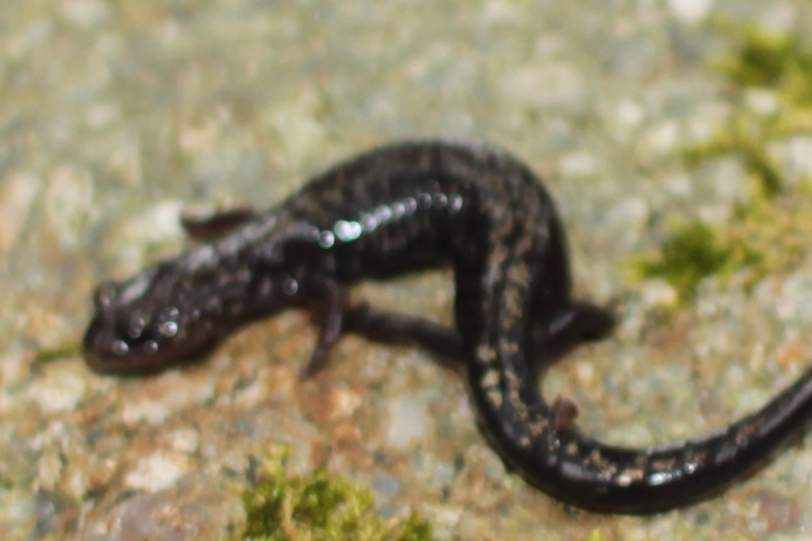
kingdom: Animalia
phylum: Chordata
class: Amphibia
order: Caudata
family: Plethodontidae
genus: Plethodon
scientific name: Plethodon welleri
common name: Weller's salamander
